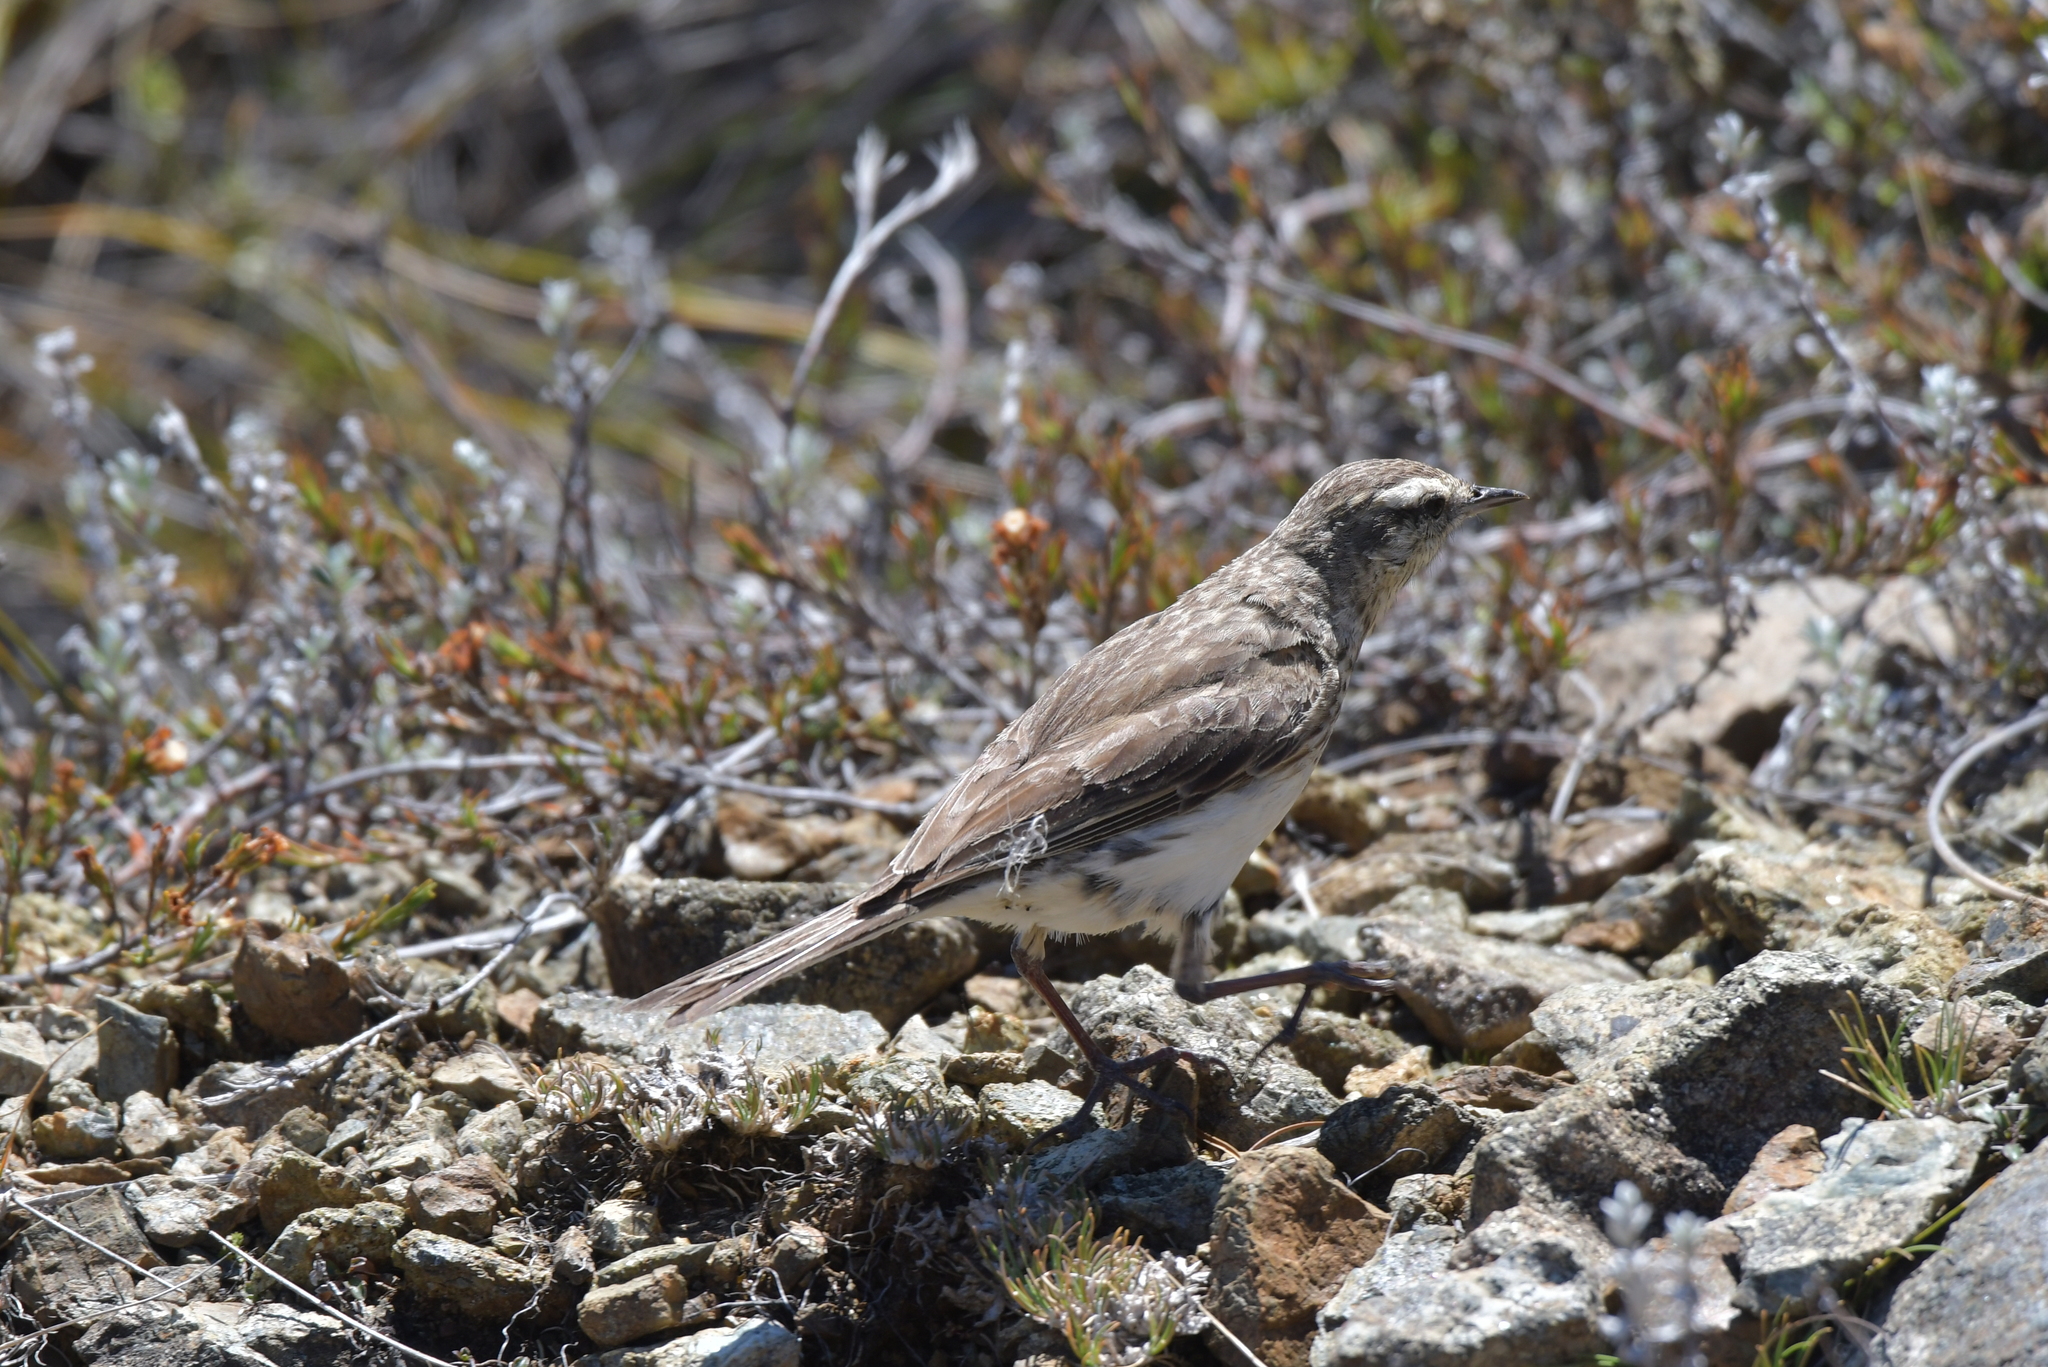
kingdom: Animalia
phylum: Chordata
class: Aves
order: Passeriformes
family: Motacillidae
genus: Anthus
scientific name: Anthus novaeseelandiae
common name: New zealand pipit
